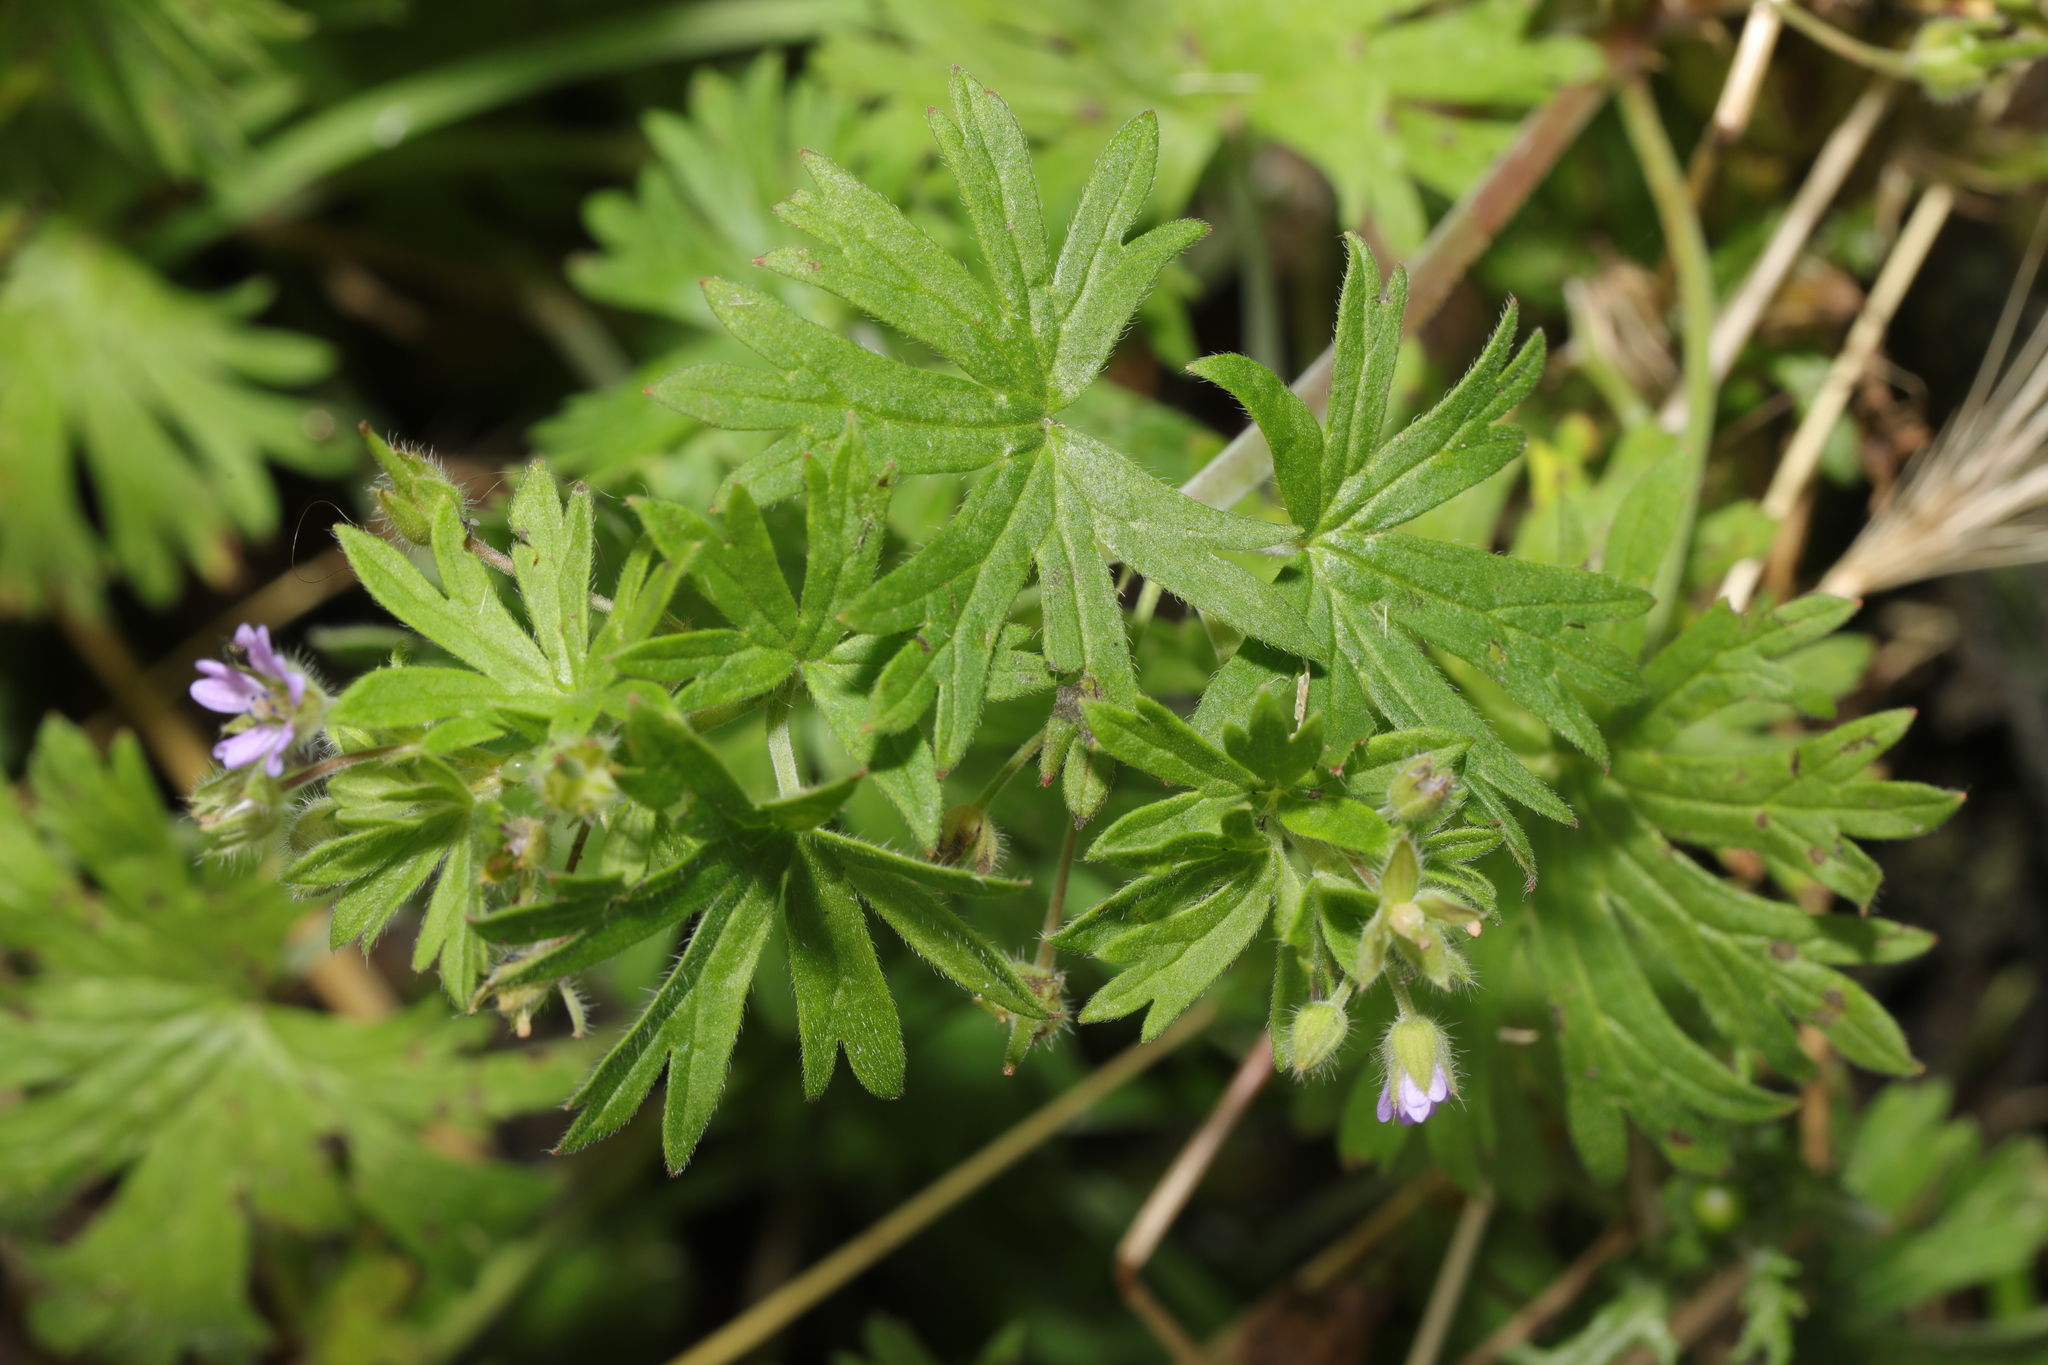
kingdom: Plantae
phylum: Tracheophyta
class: Magnoliopsida
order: Geraniales
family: Geraniaceae
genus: Geranium
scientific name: Geranium pusillum
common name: Small geranium
